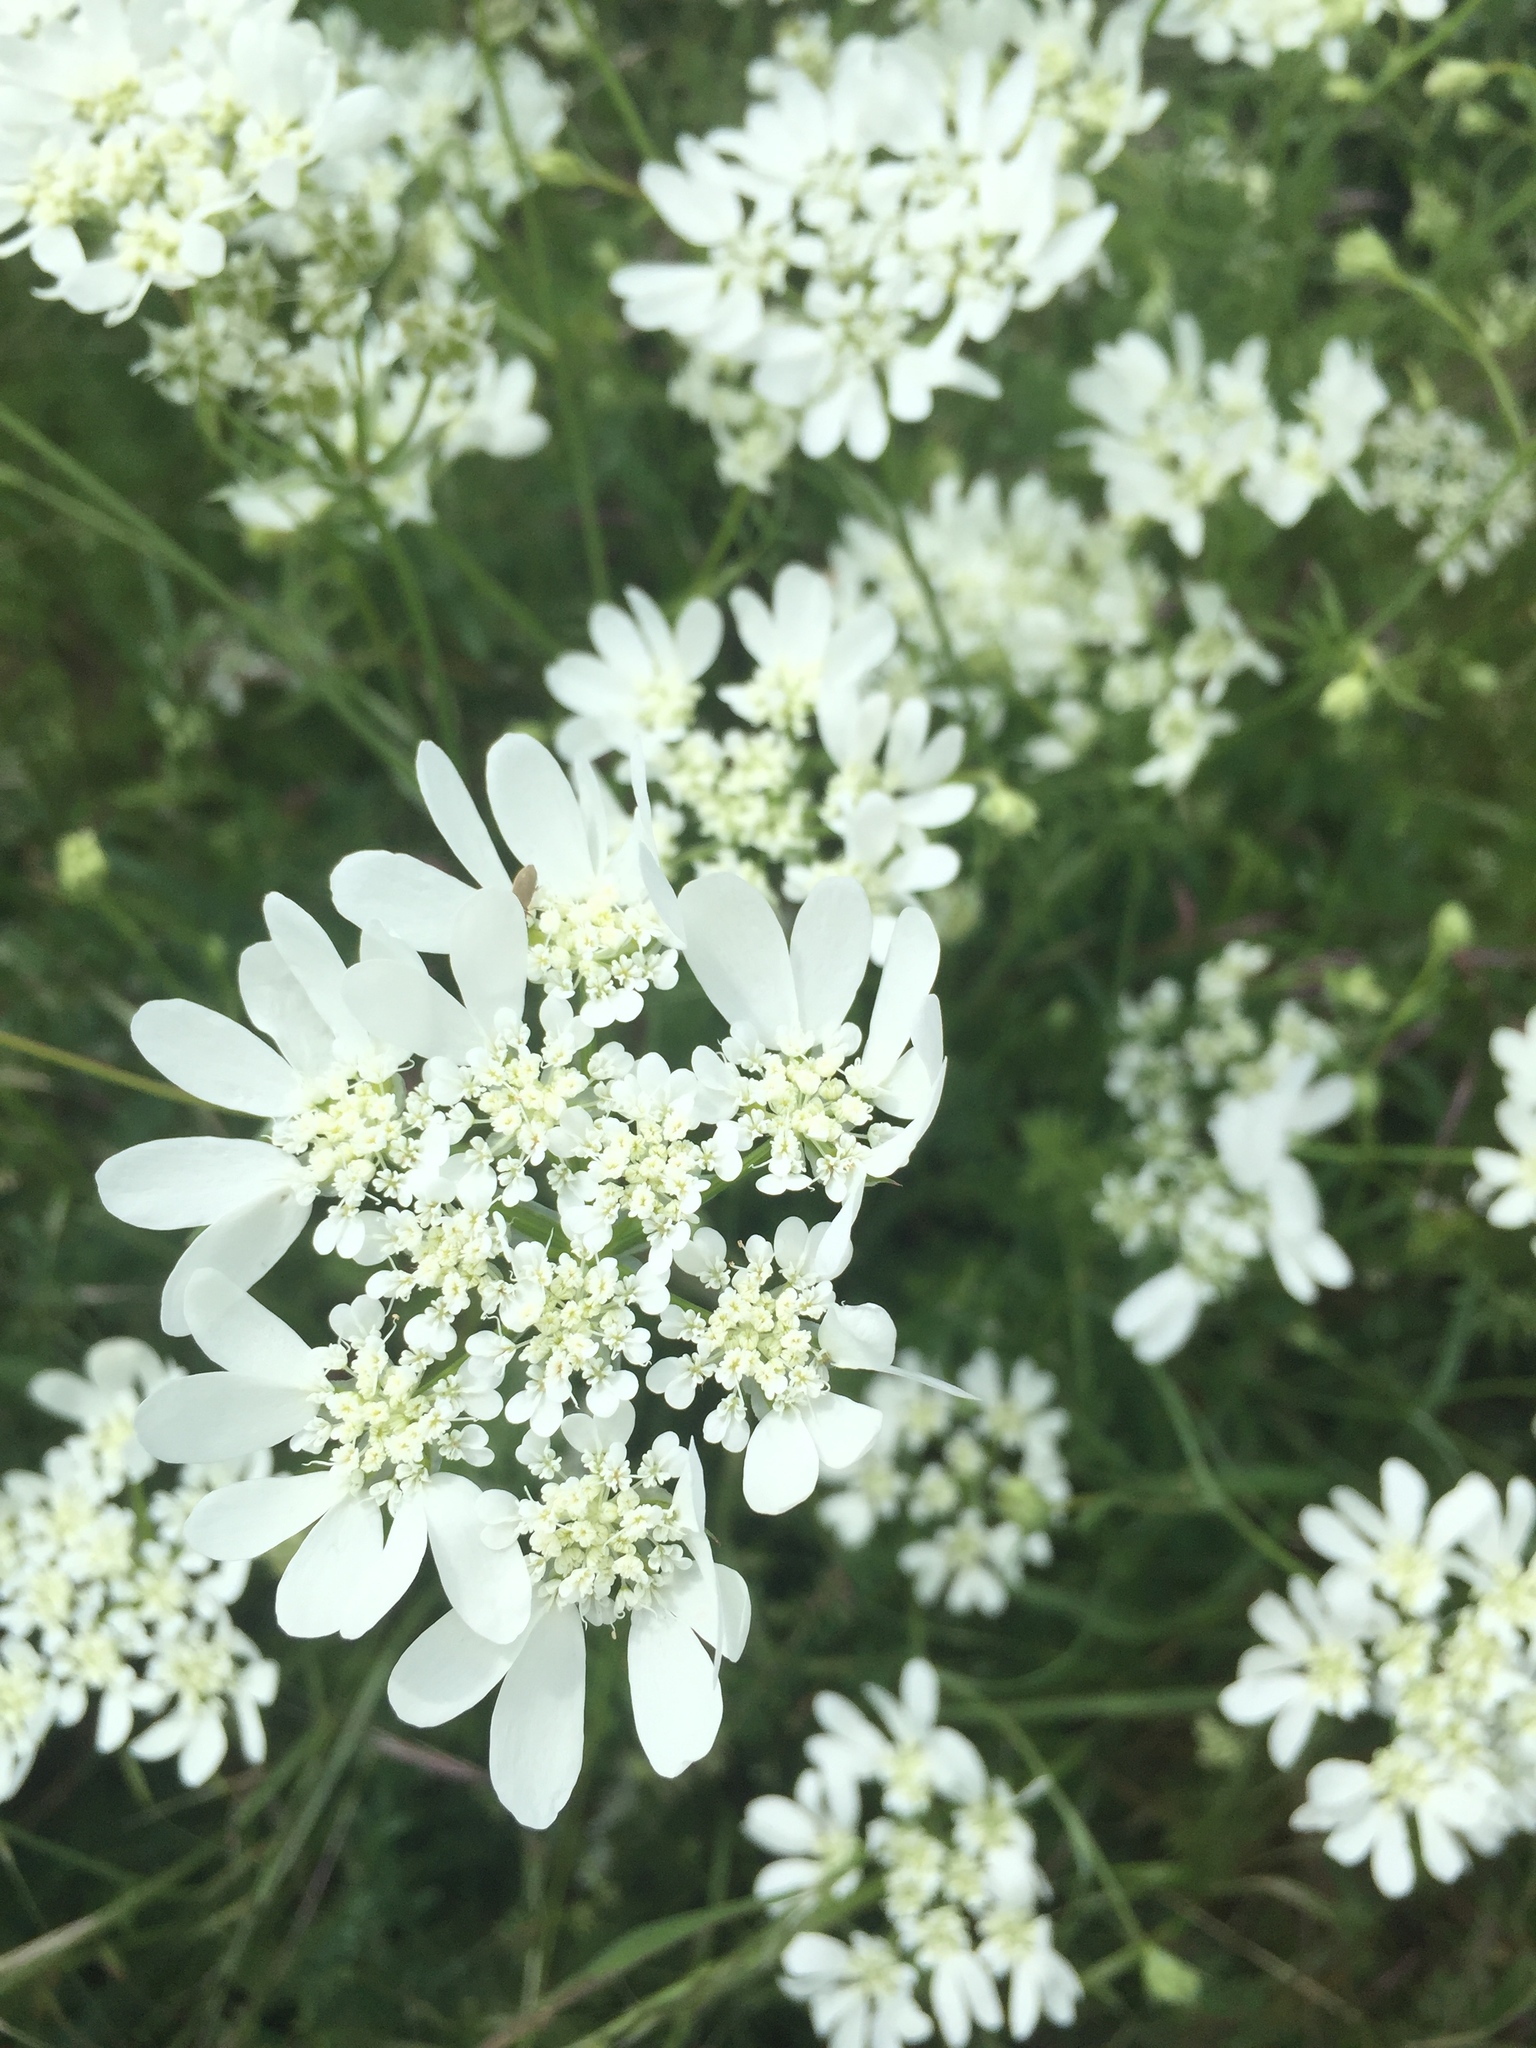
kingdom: Plantae
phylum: Tracheophyta
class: Magnoliopsida
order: Apiales
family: Apiaceae
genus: Orlaya
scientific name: Orlaya grandiflora
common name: White lace flower
